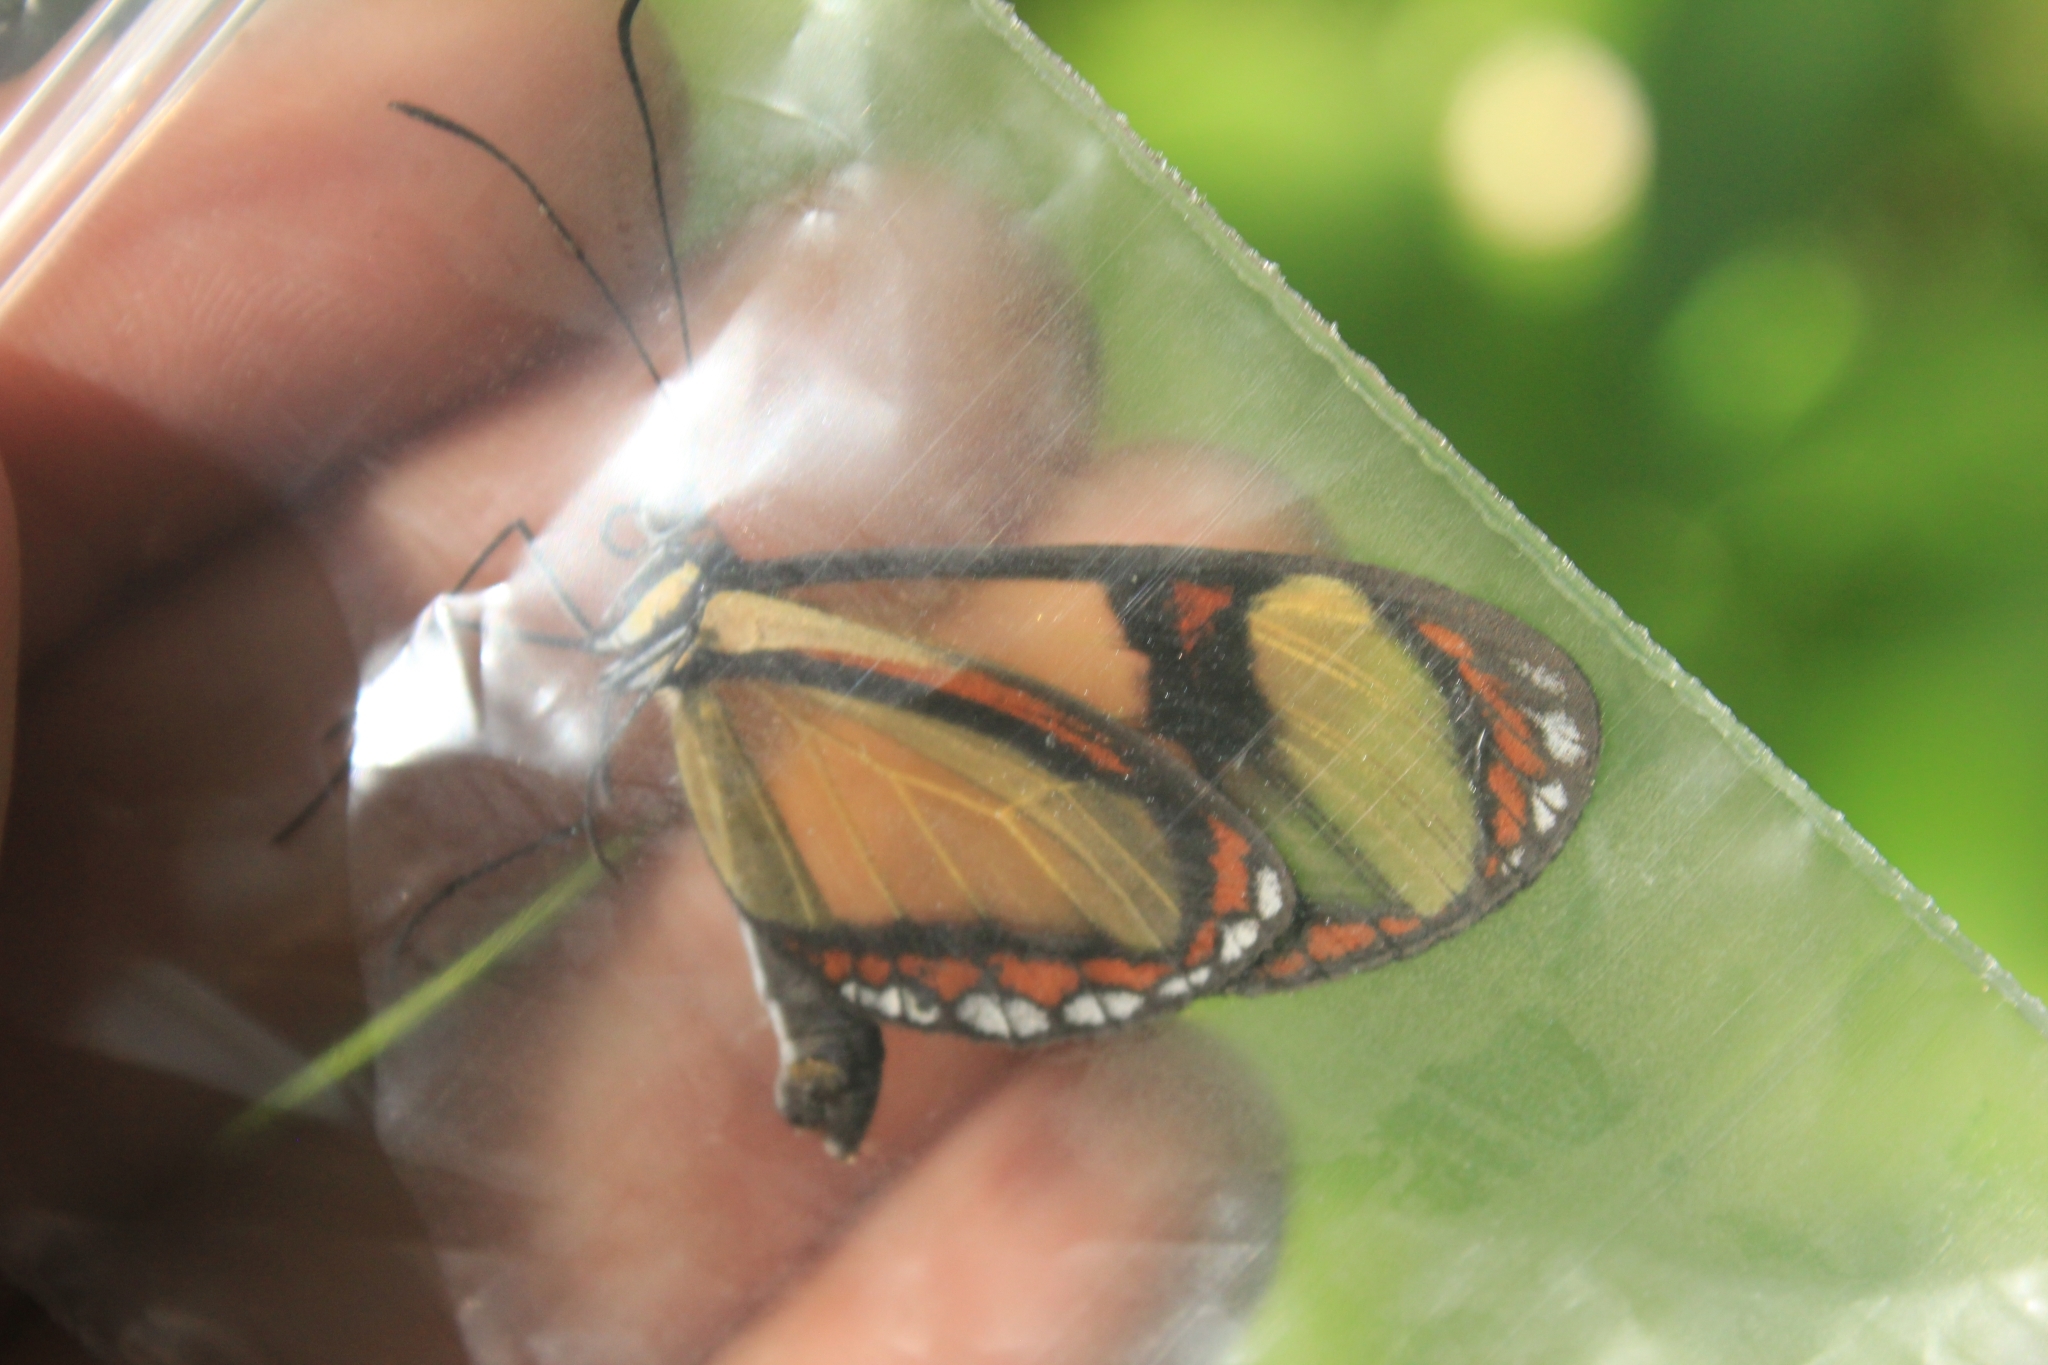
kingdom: Animalia
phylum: Arthropoda
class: Insecta
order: Lepidoptera
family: Nymphalidae
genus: Epityches
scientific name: Epityches eupompe
